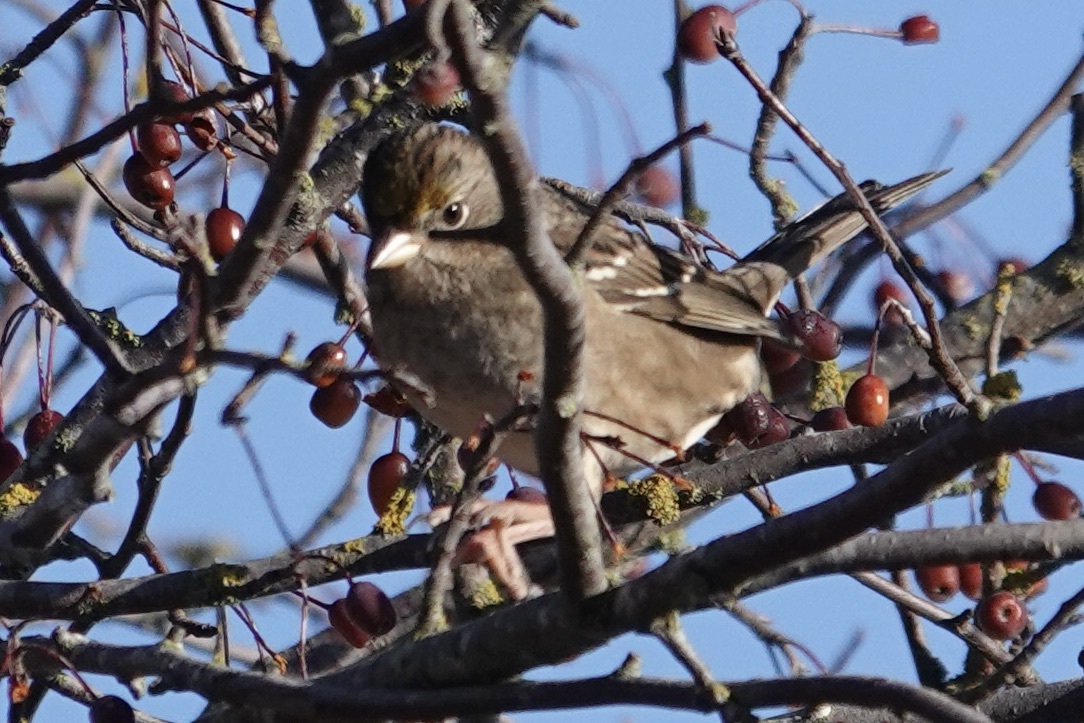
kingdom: Animalia
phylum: Chordata
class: Aves
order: Passeriformes
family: Passerellidae
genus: Zonotrichia
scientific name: Zonotrichia atricapilla
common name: Golden-crowned sparrow
